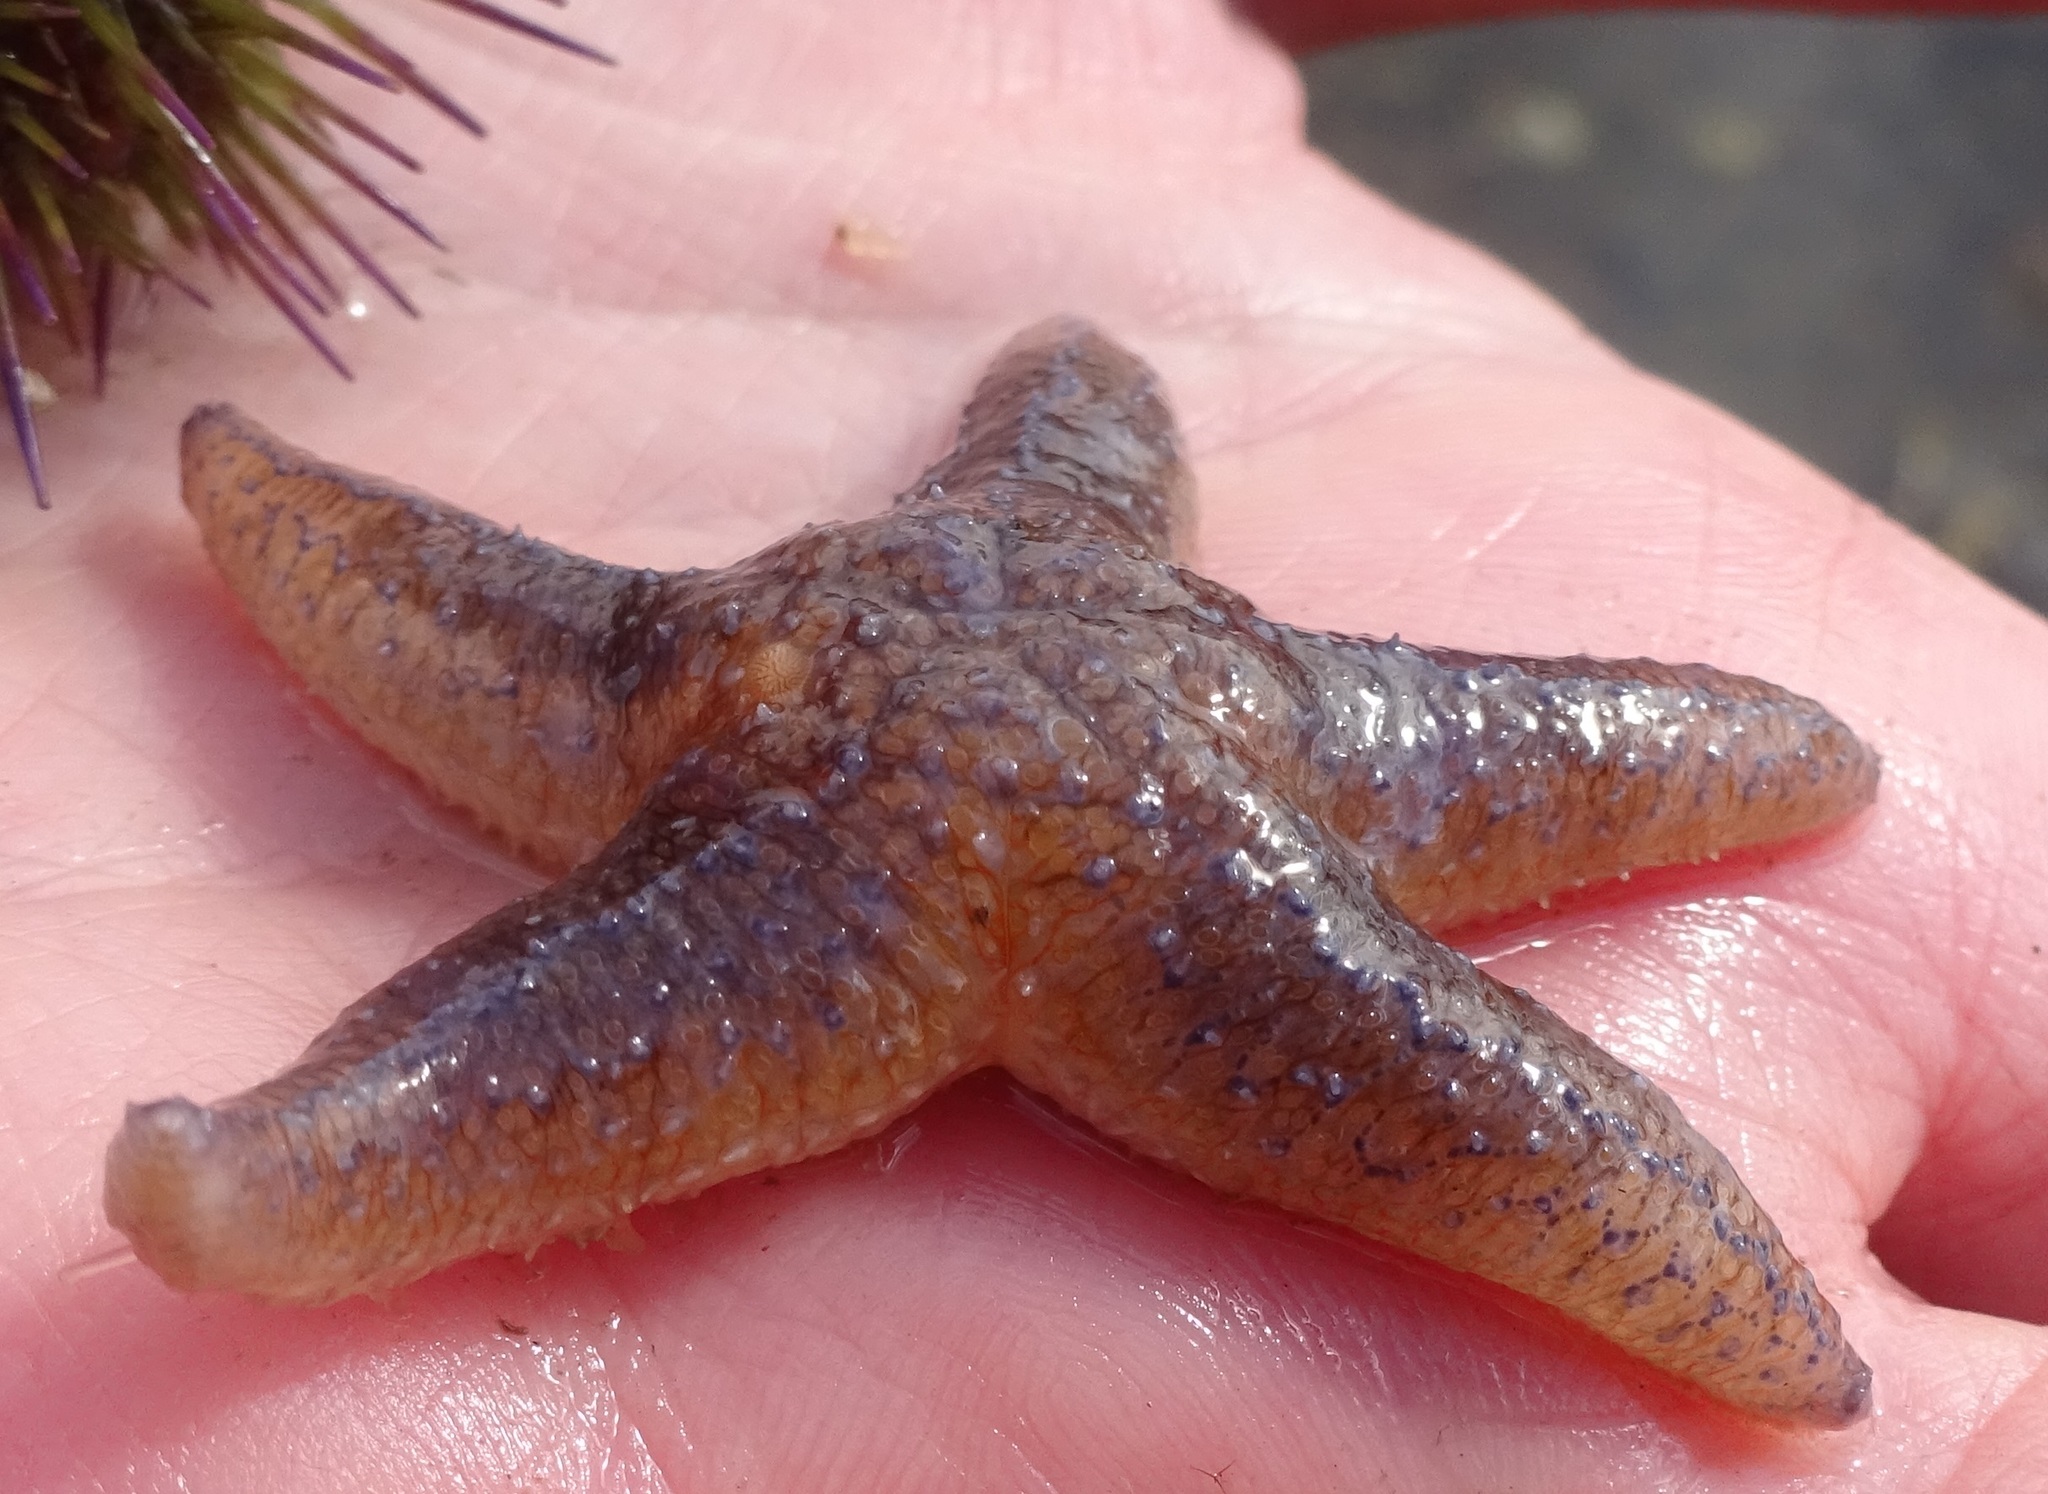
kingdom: Animalia
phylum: Echinodermata
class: Asteroidea
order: Forcipulatida
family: Asteriidae
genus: Asterias
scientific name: Asterias rubens
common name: Common starfish
